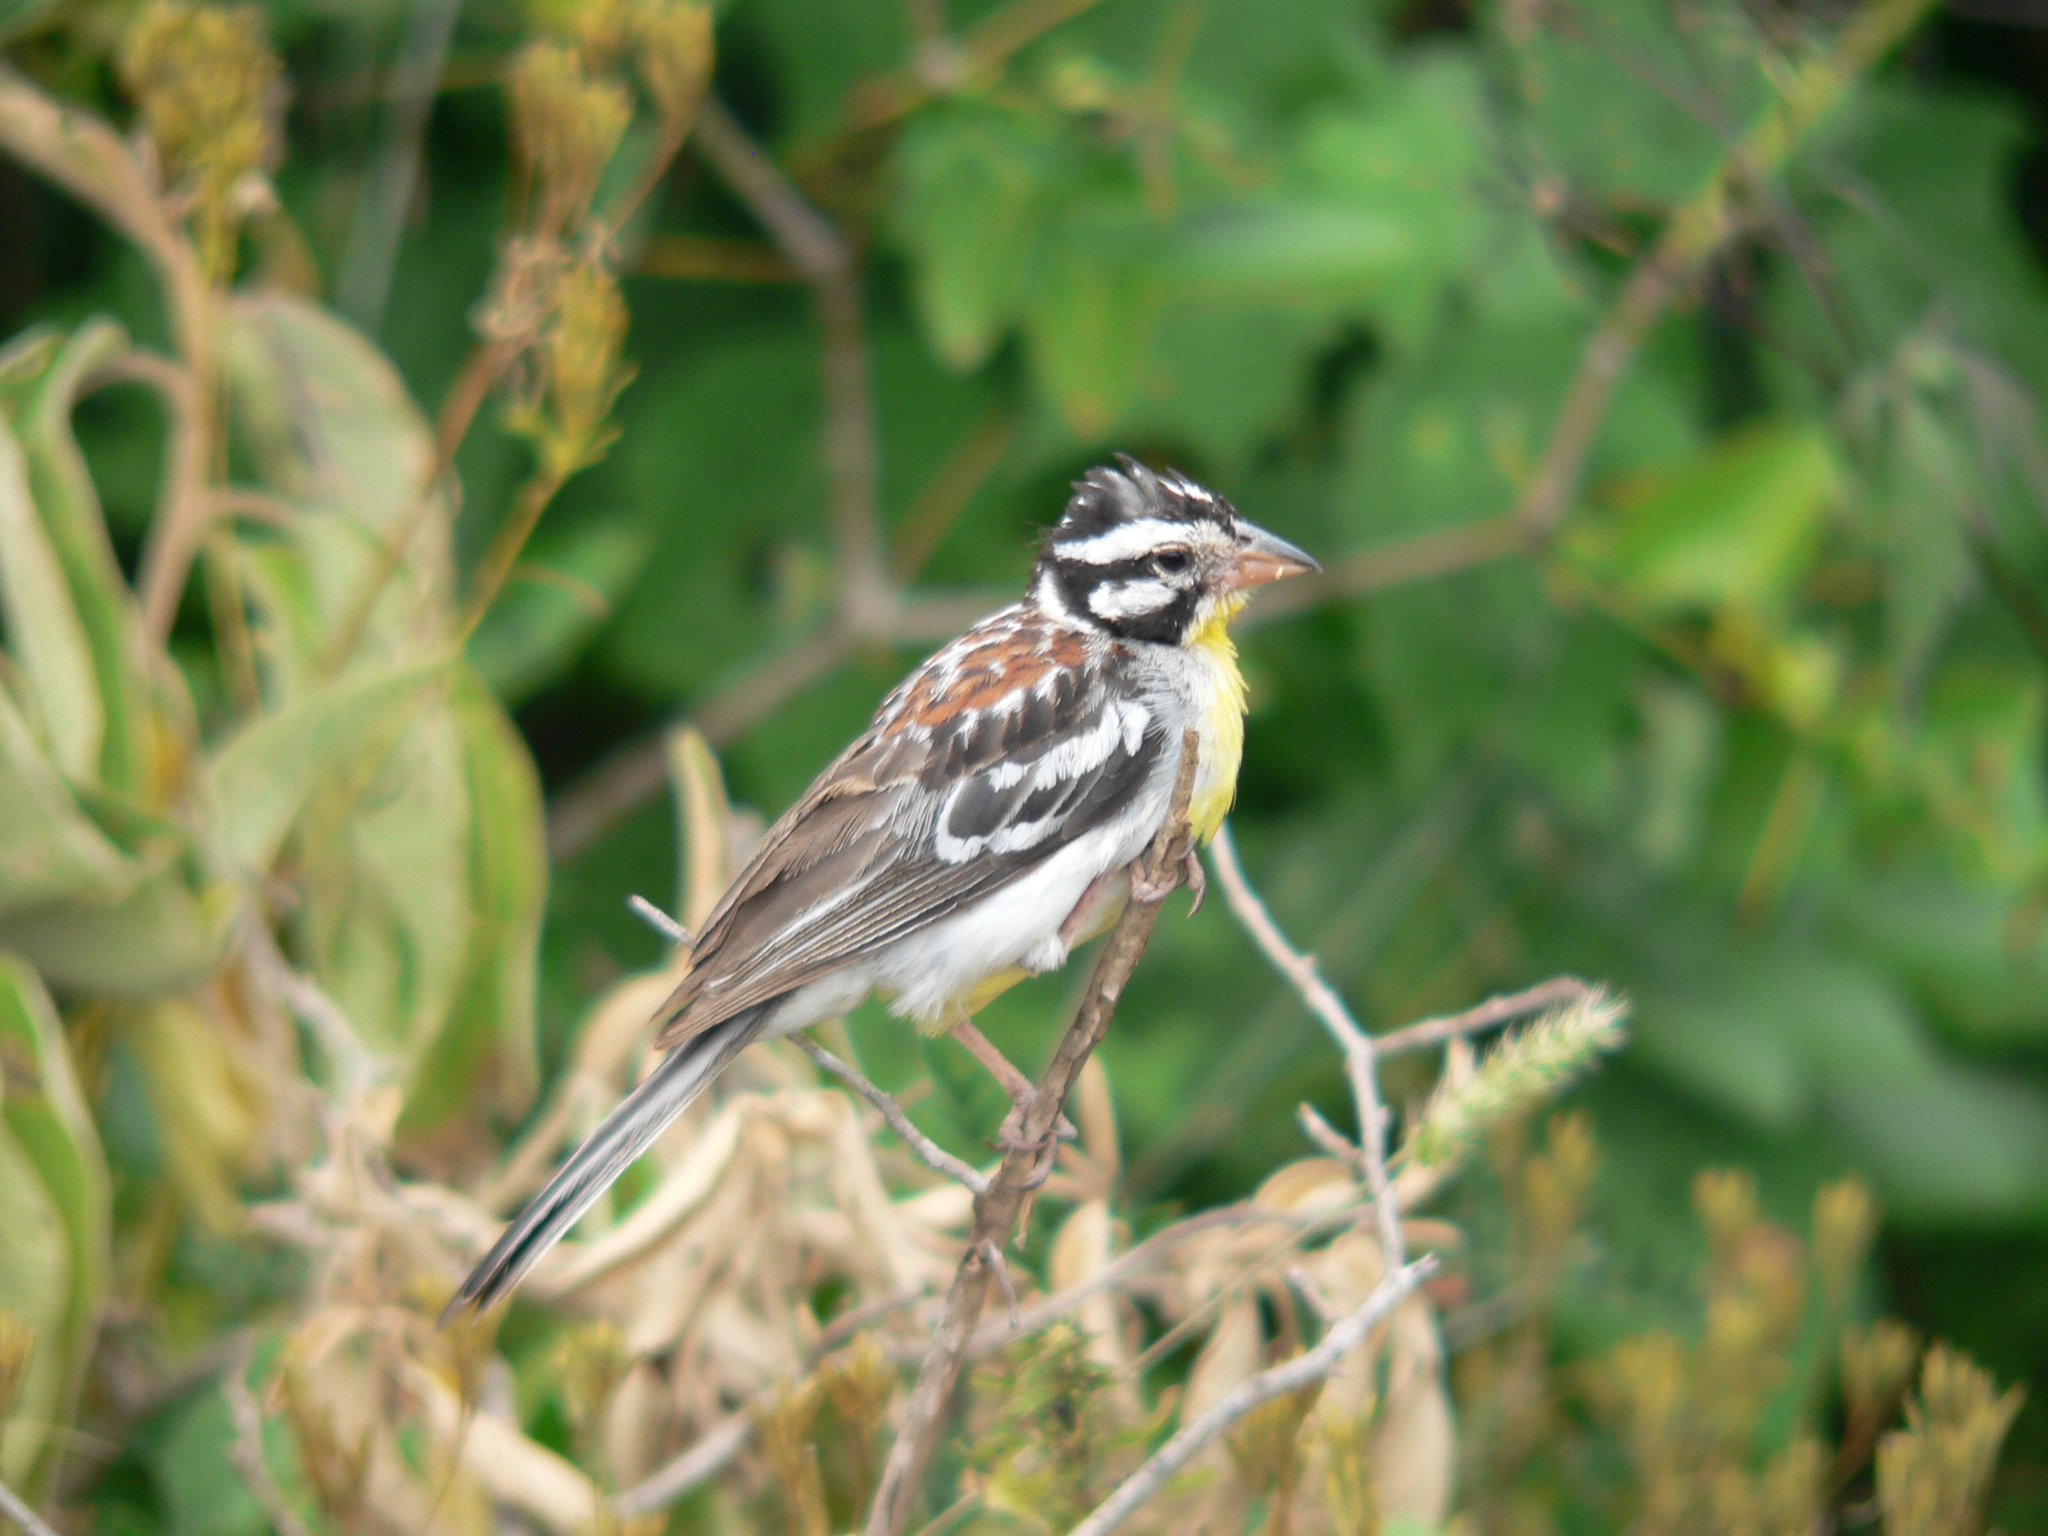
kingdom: Animalia
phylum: Chordata
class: Aves
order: Passeriformes
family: Emberizidae
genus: Emberiza
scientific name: Emberiza poliopleura
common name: Somali bunting
